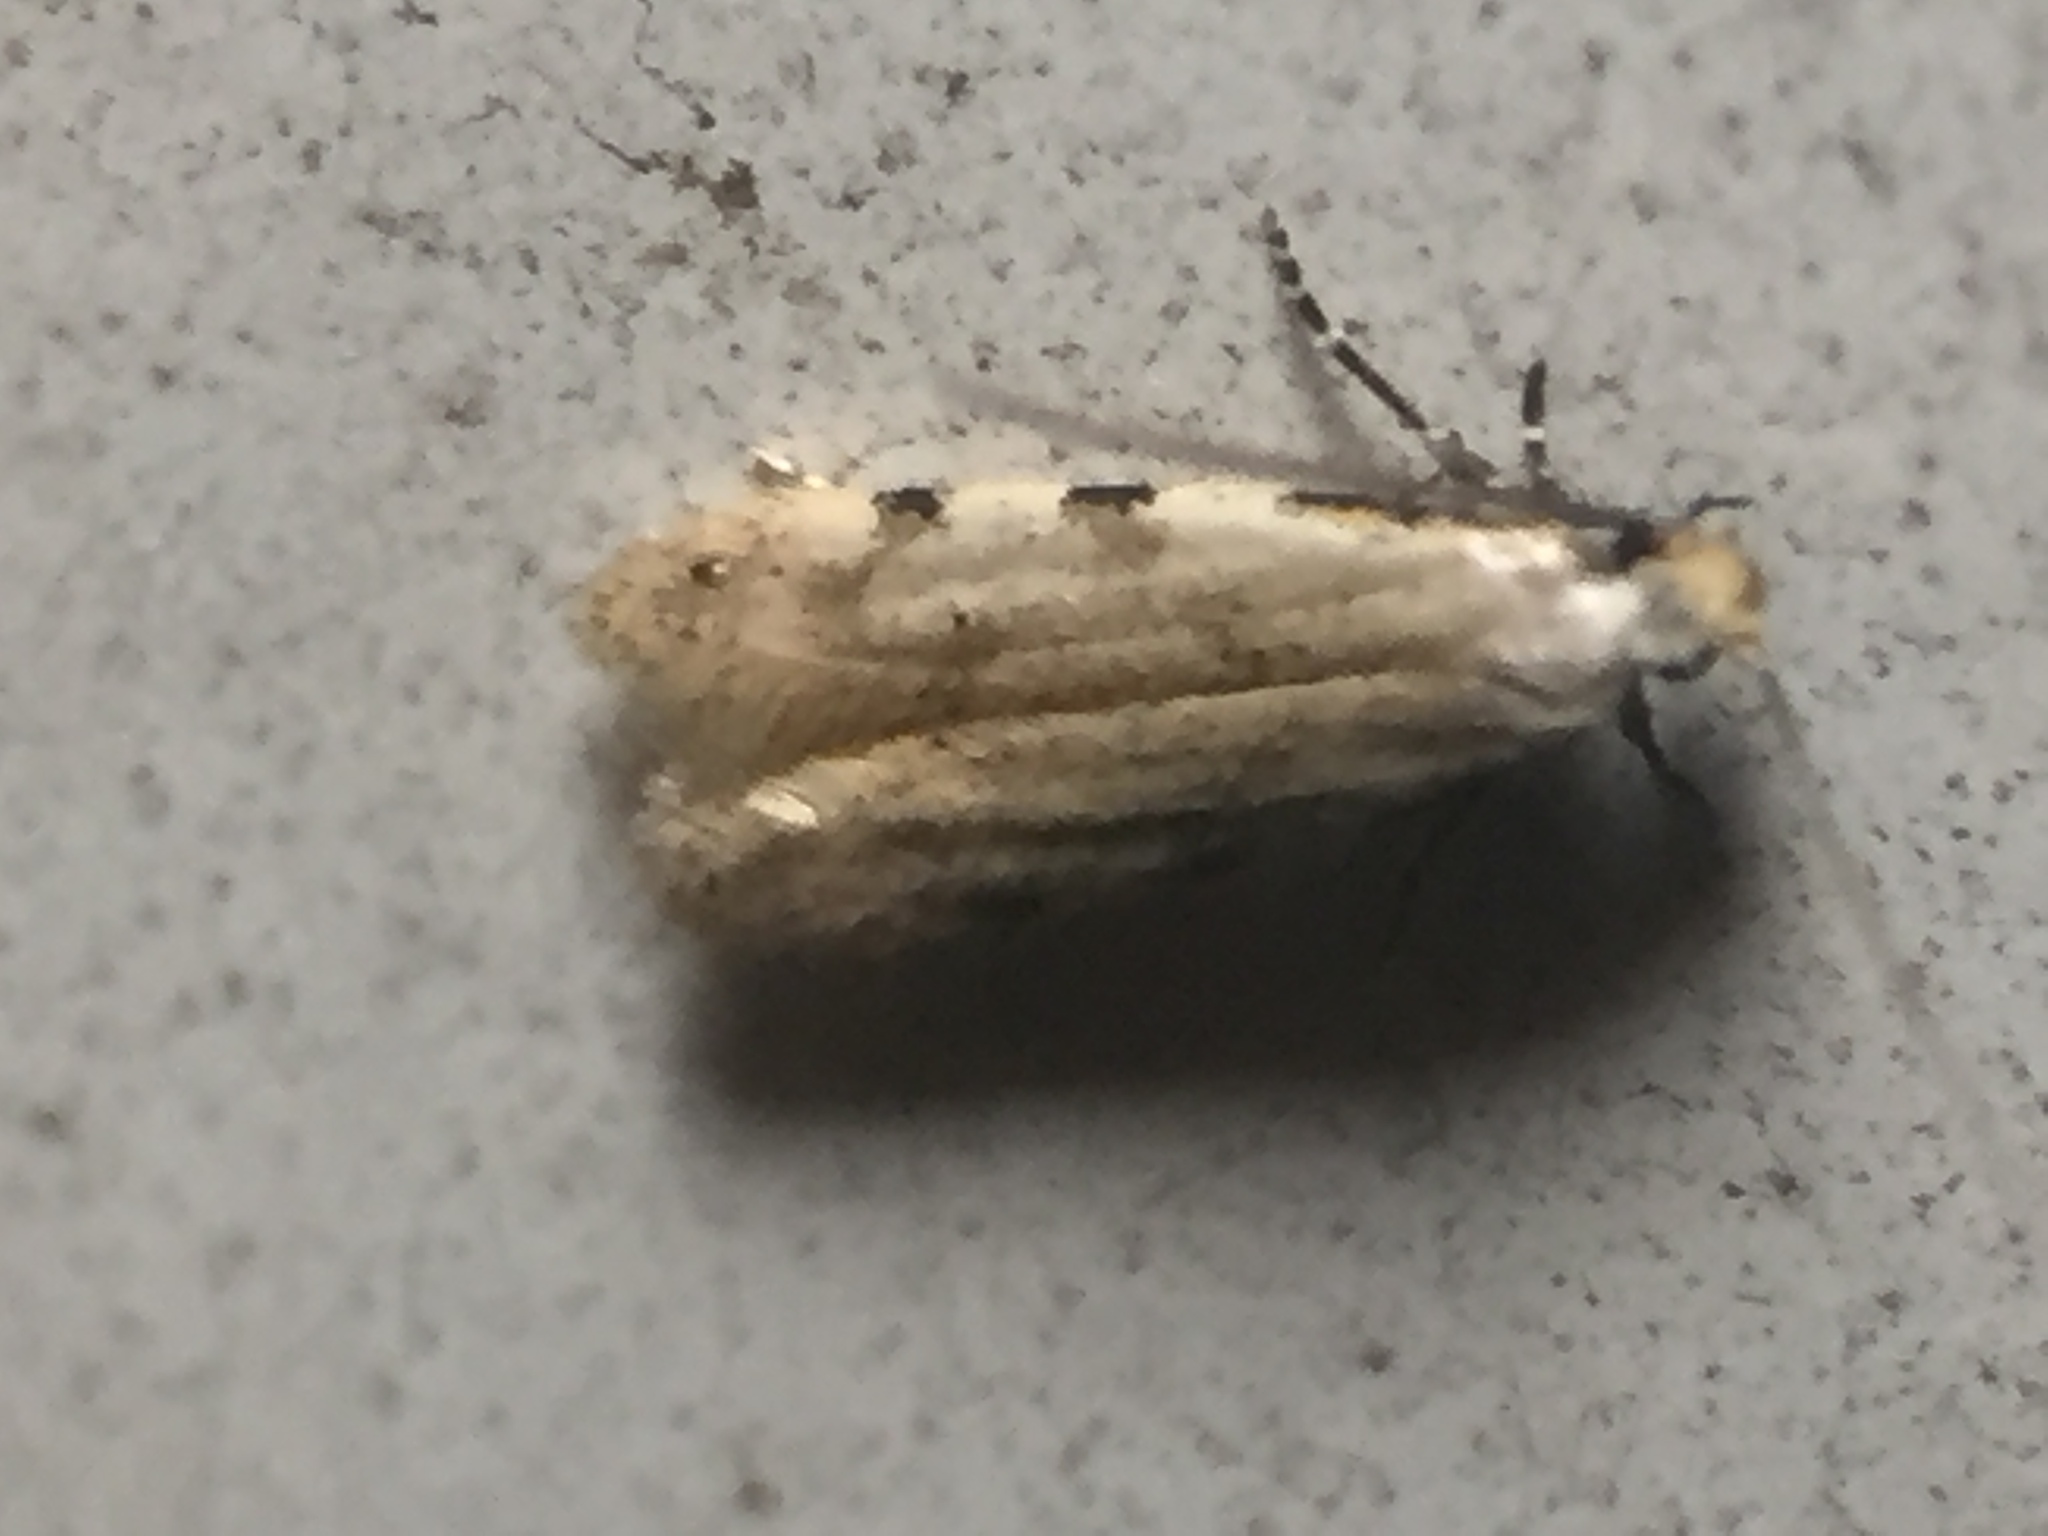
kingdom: Animalia
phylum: Arthropoda
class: Insecta
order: Lepidoptera
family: Tineidae
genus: Endophthora
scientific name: Endophthora omogramma
